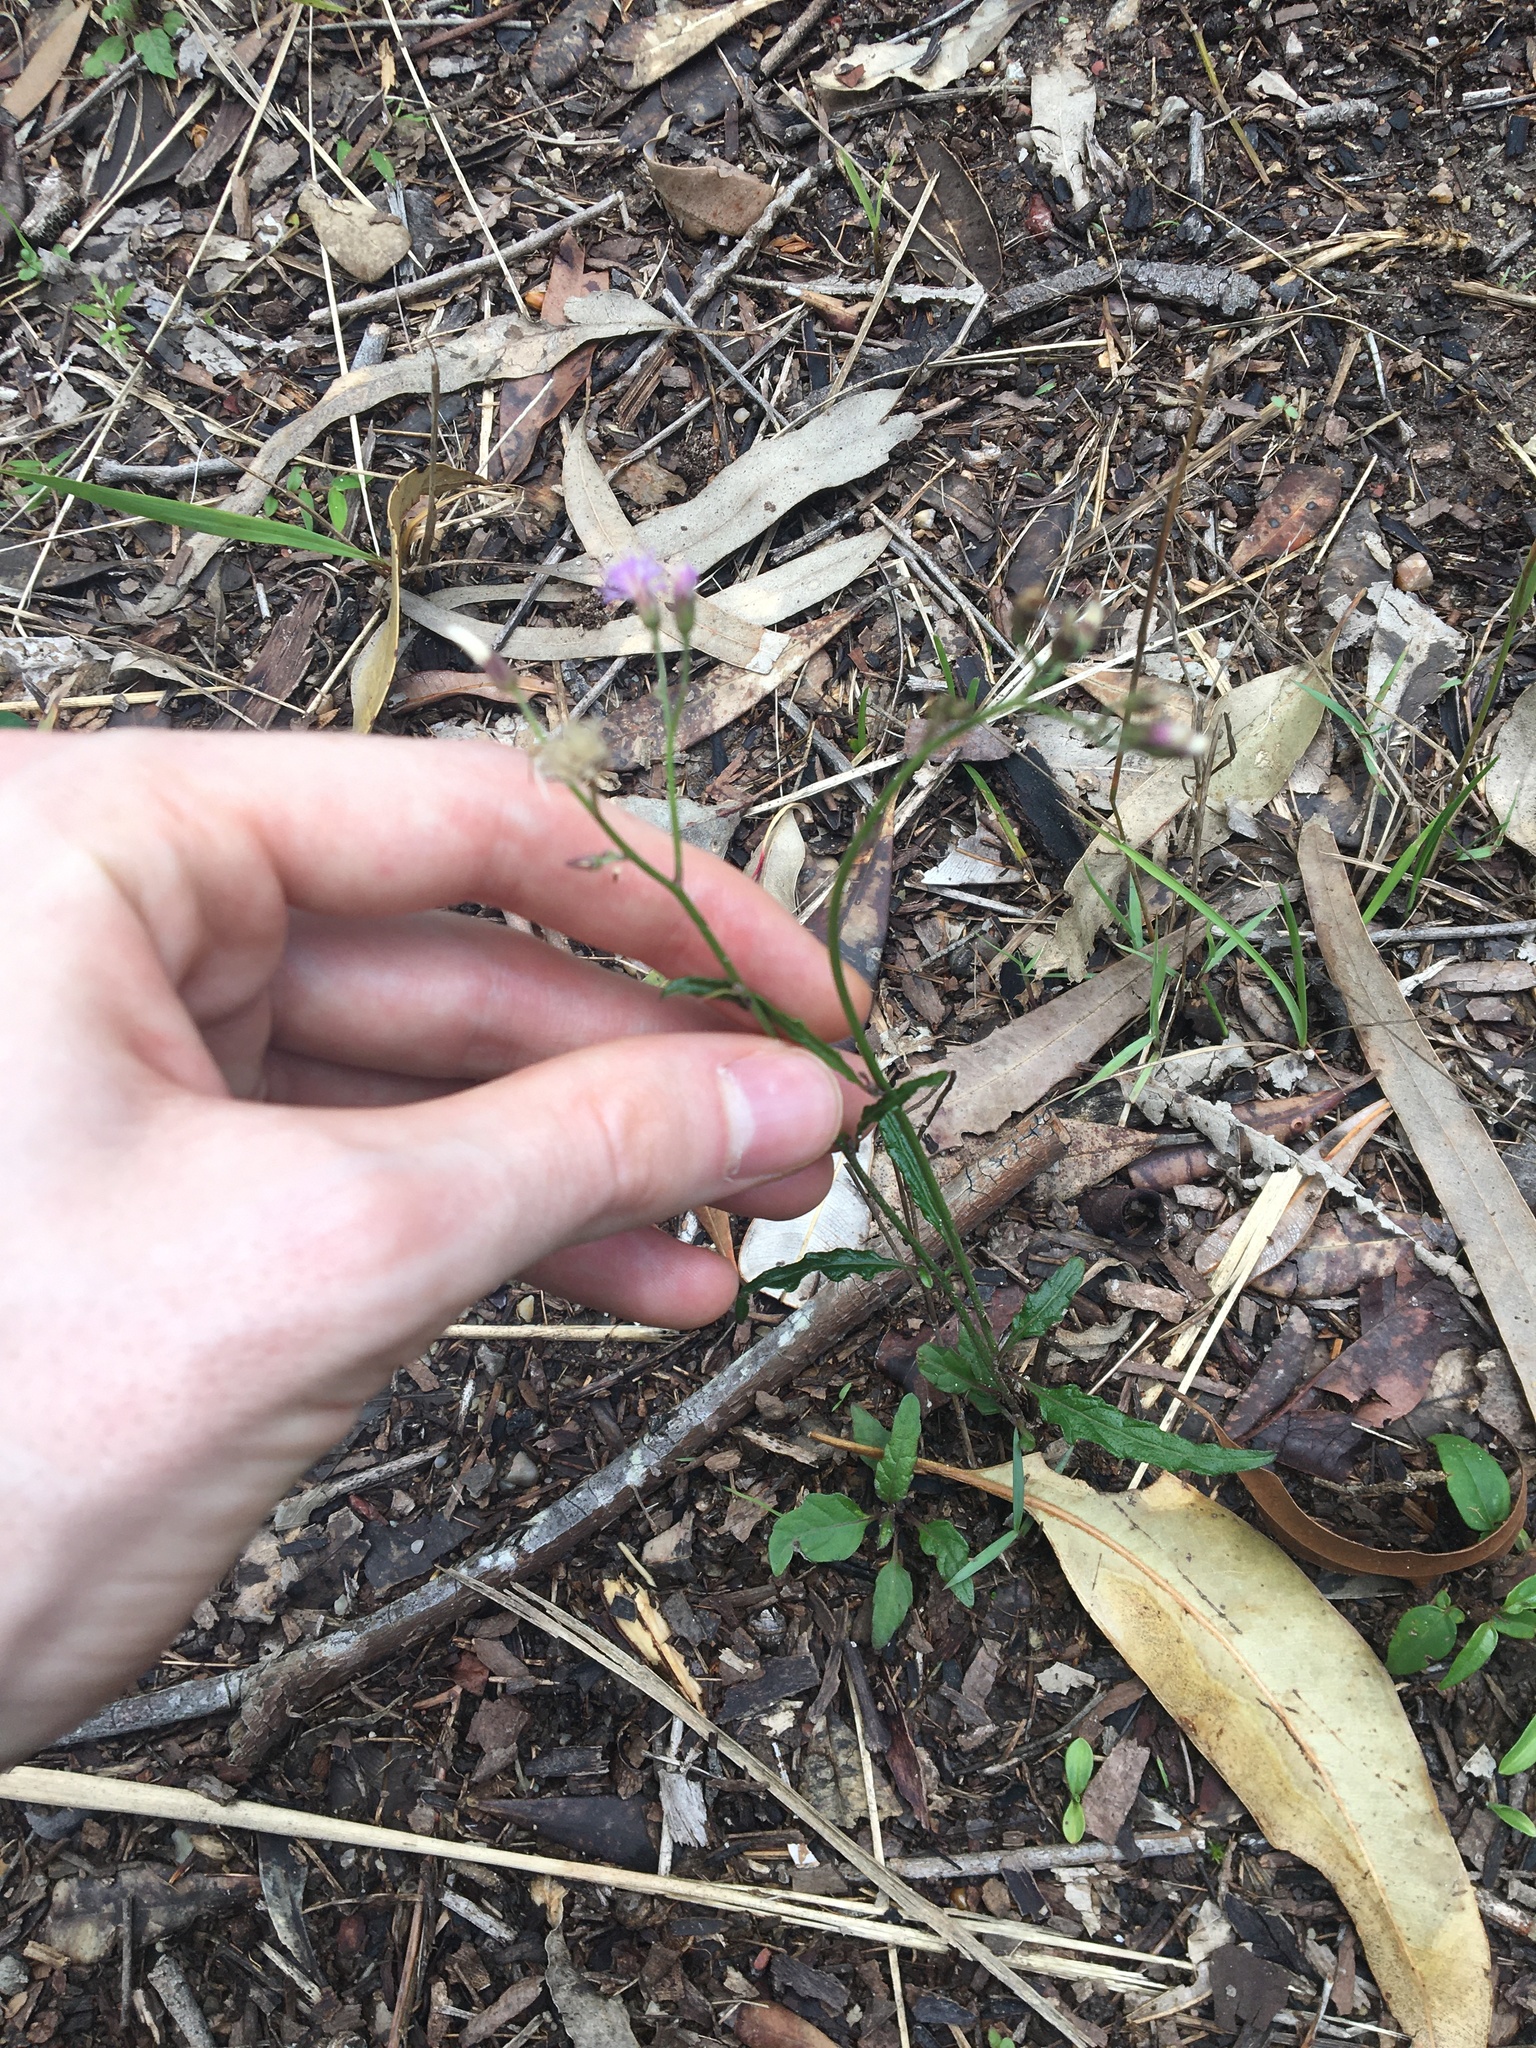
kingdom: Plantae
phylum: Tracheophyta
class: Magnoliopsida
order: Asterales
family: Asteraceae
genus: Cyanthillium
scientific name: Cyanthillium cinereum
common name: Little ironweed
